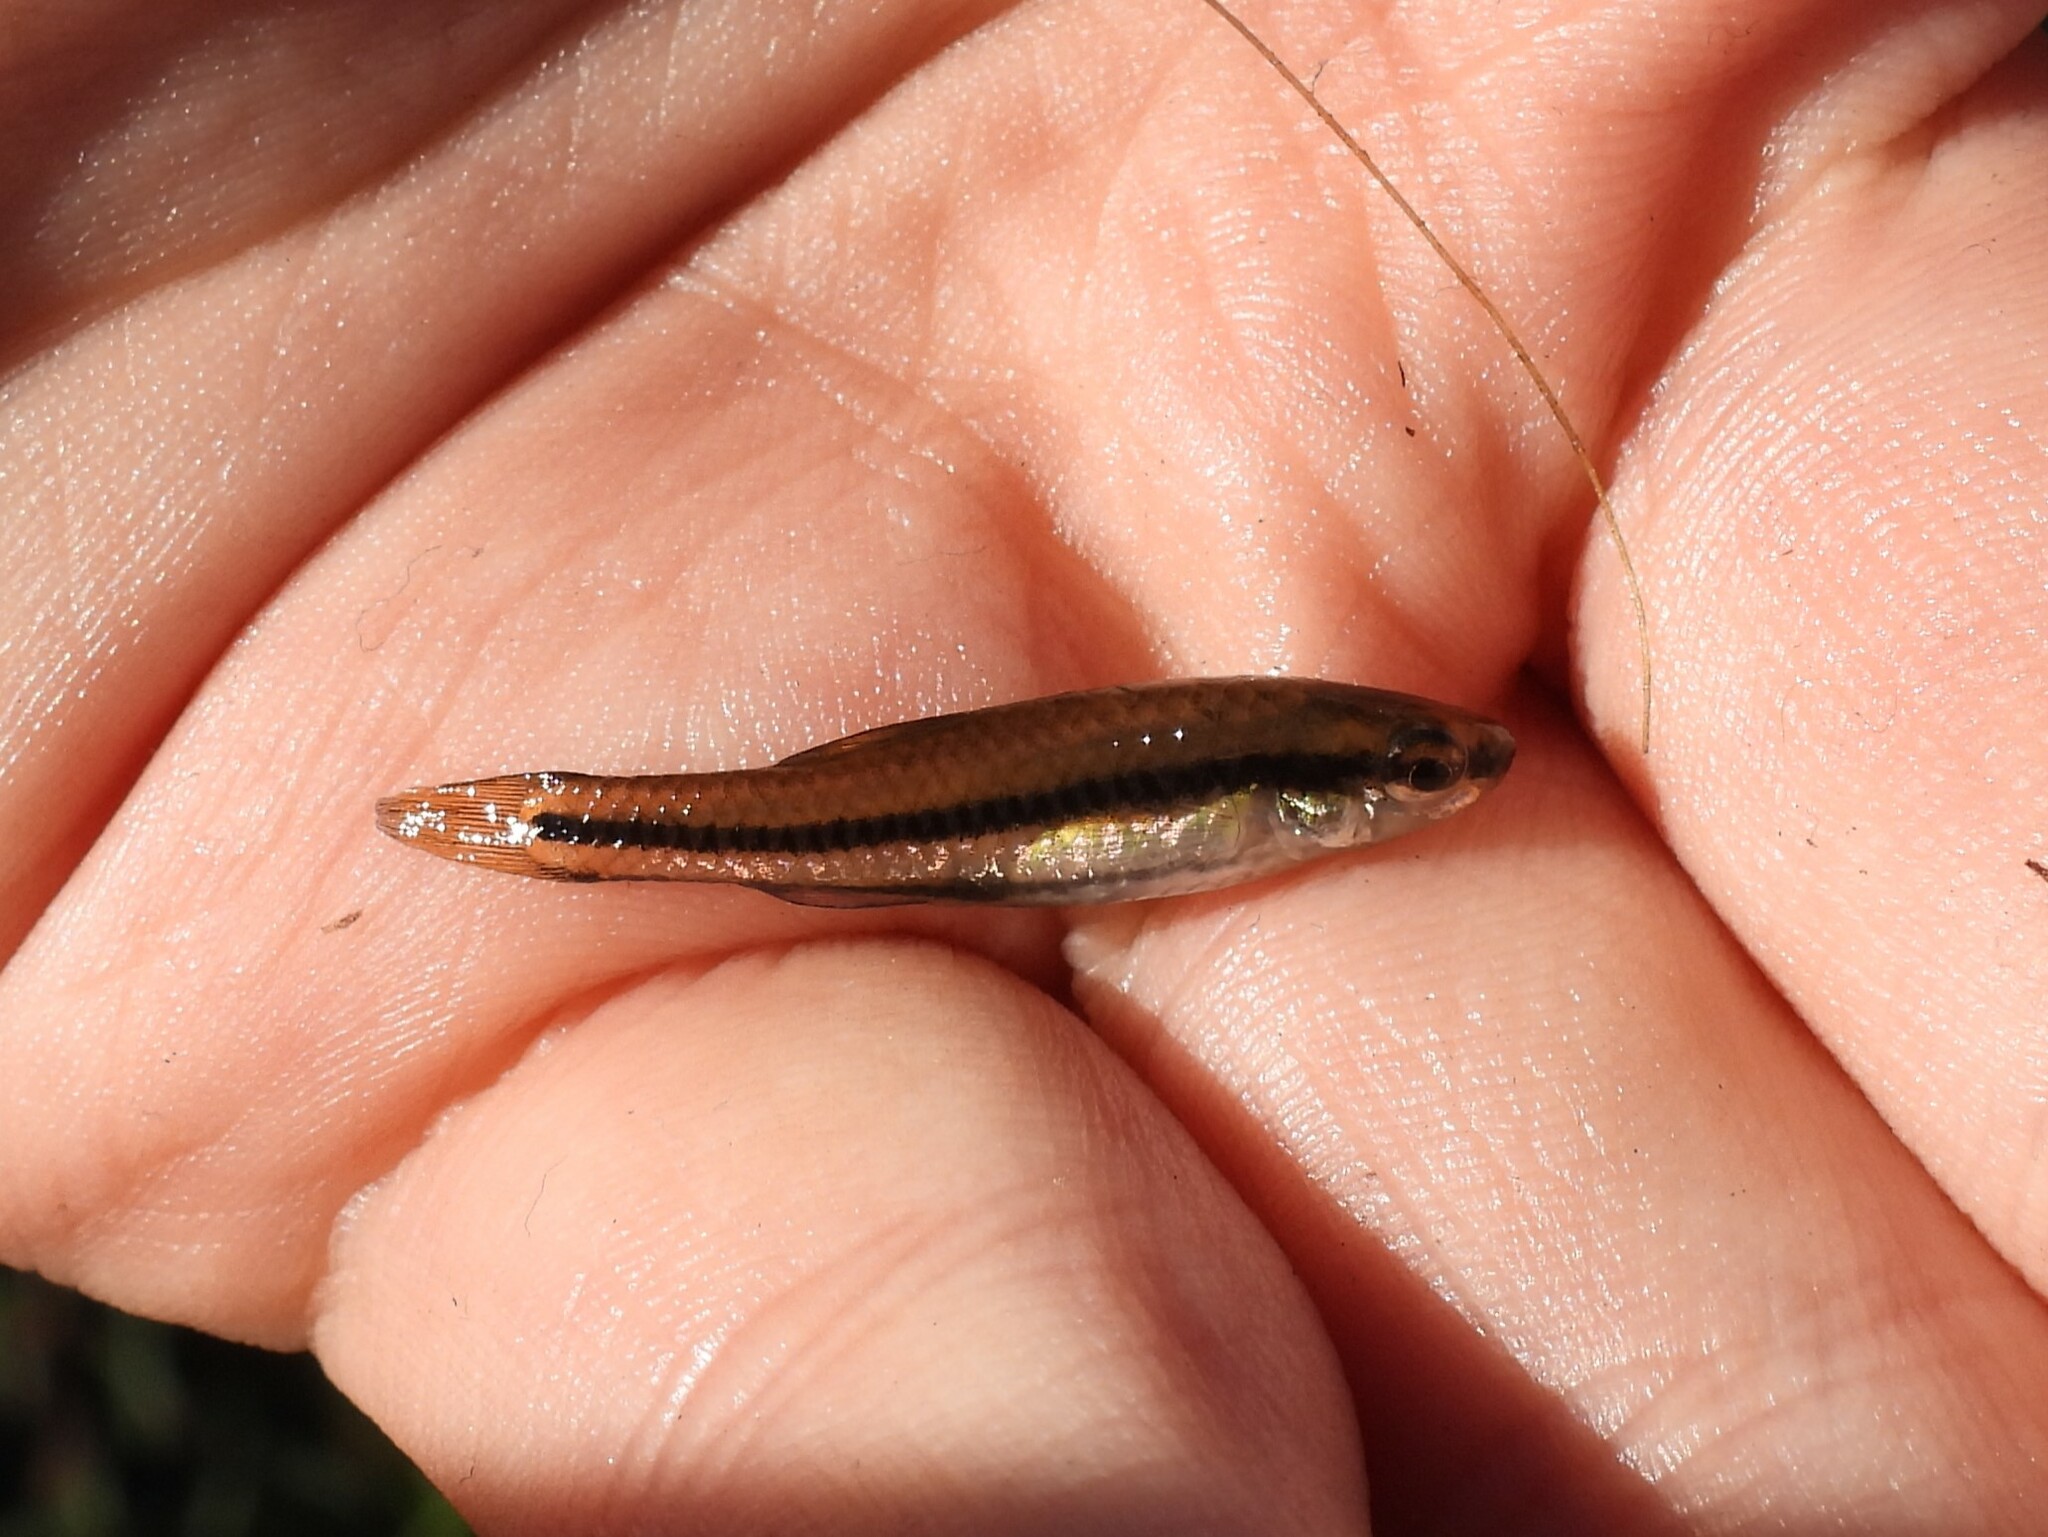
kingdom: Animalia
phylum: Chordata
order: Cyprinodontiformes
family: Fundulidae
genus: Lucania
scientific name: Lucania goodei
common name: Bluefin killifish
